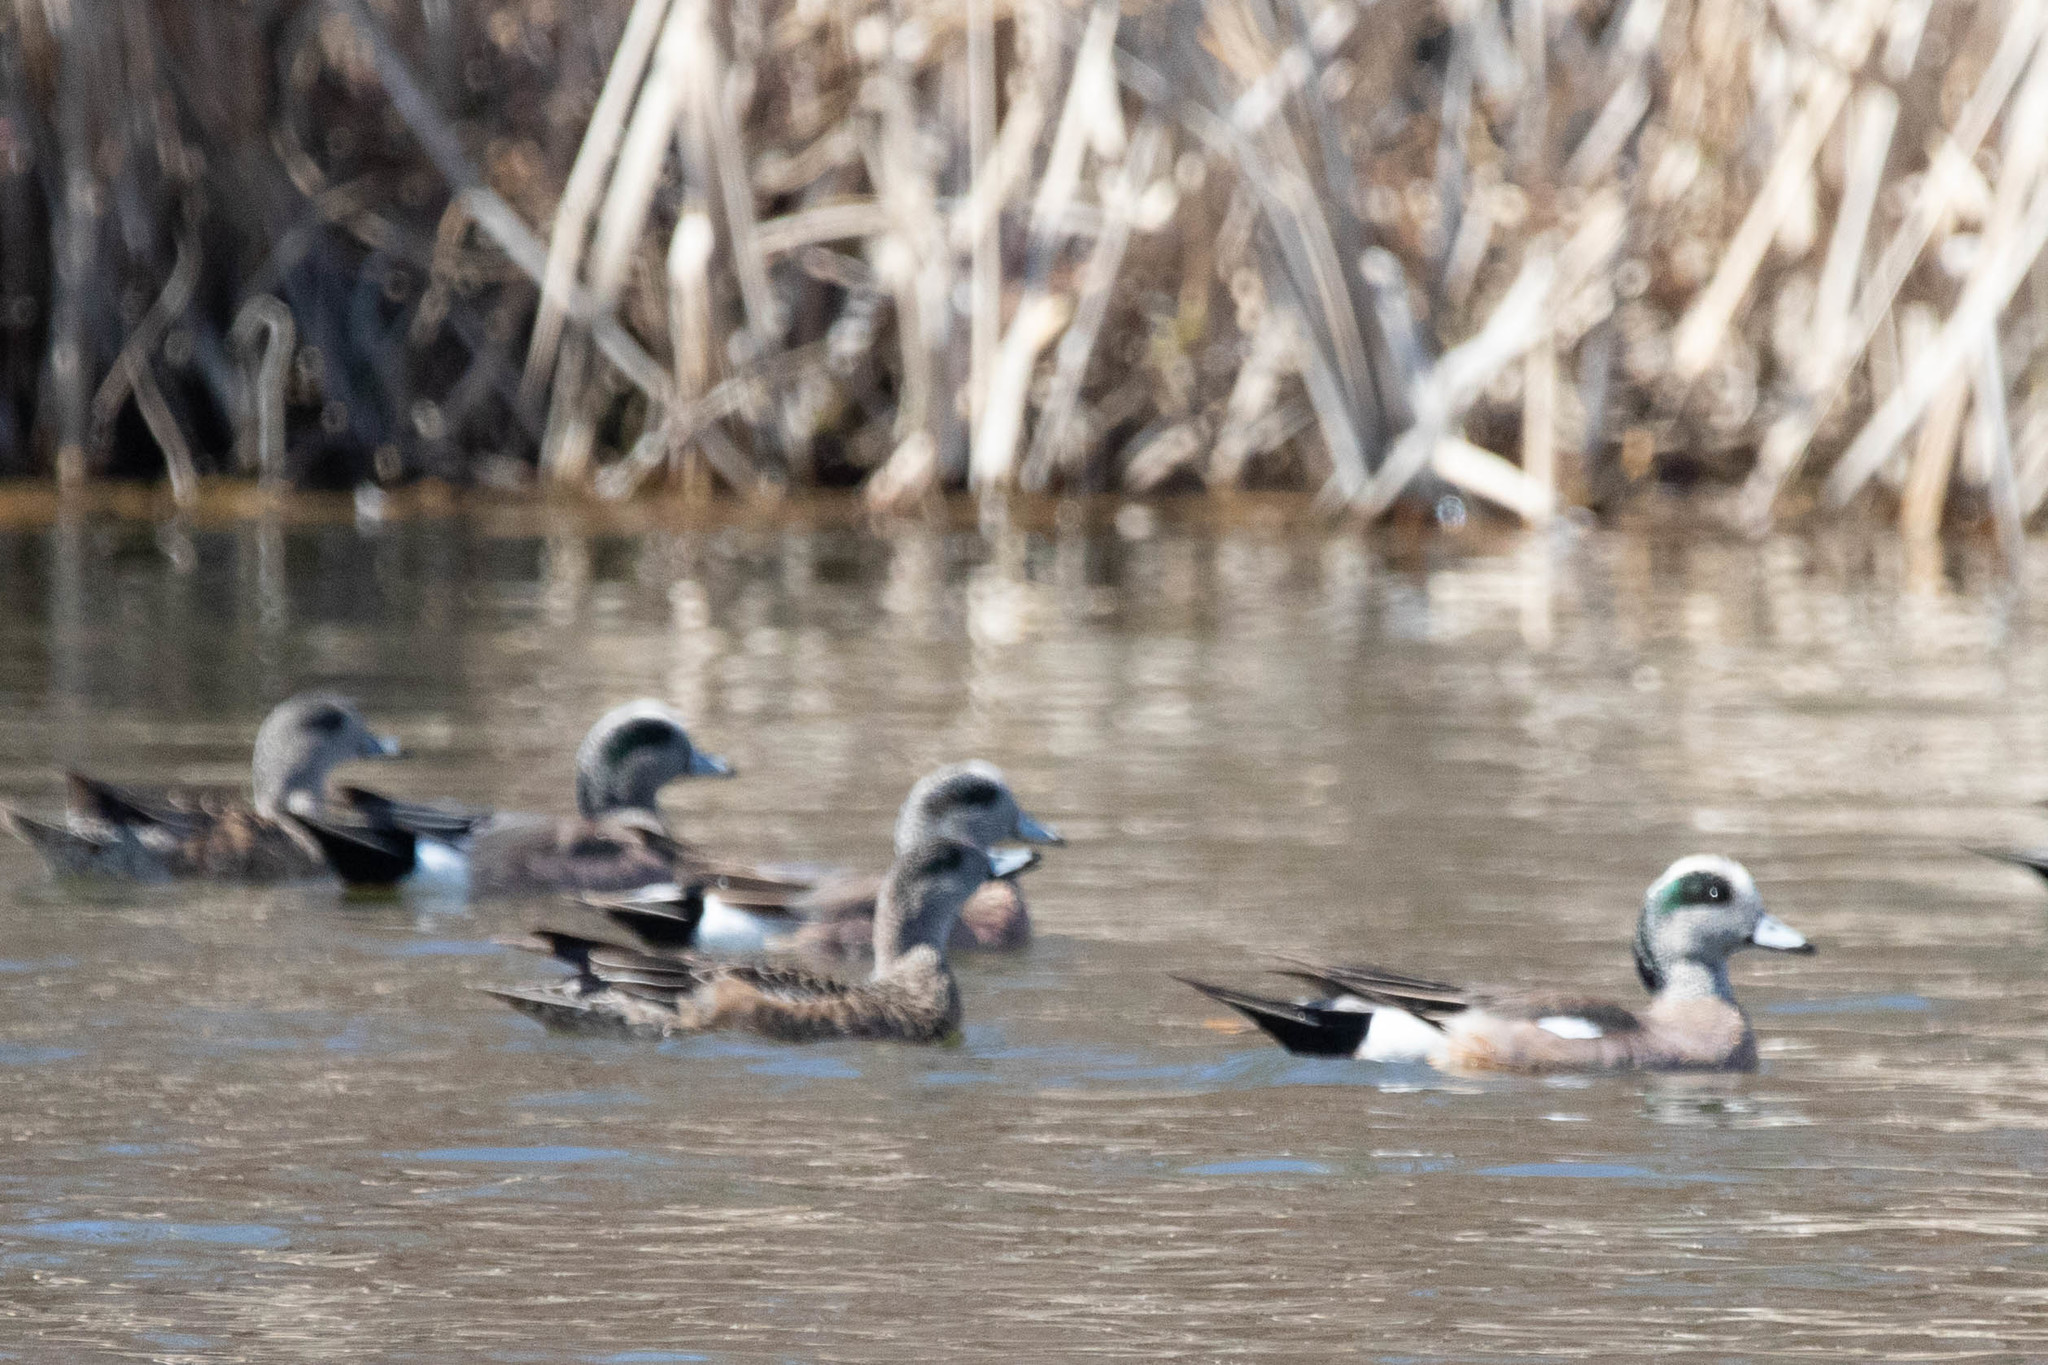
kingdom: Animalia
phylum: Chordata
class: Aves
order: Anseriformes
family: Anatidae
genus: Mareca
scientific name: Mareca americana
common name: American wigeon
